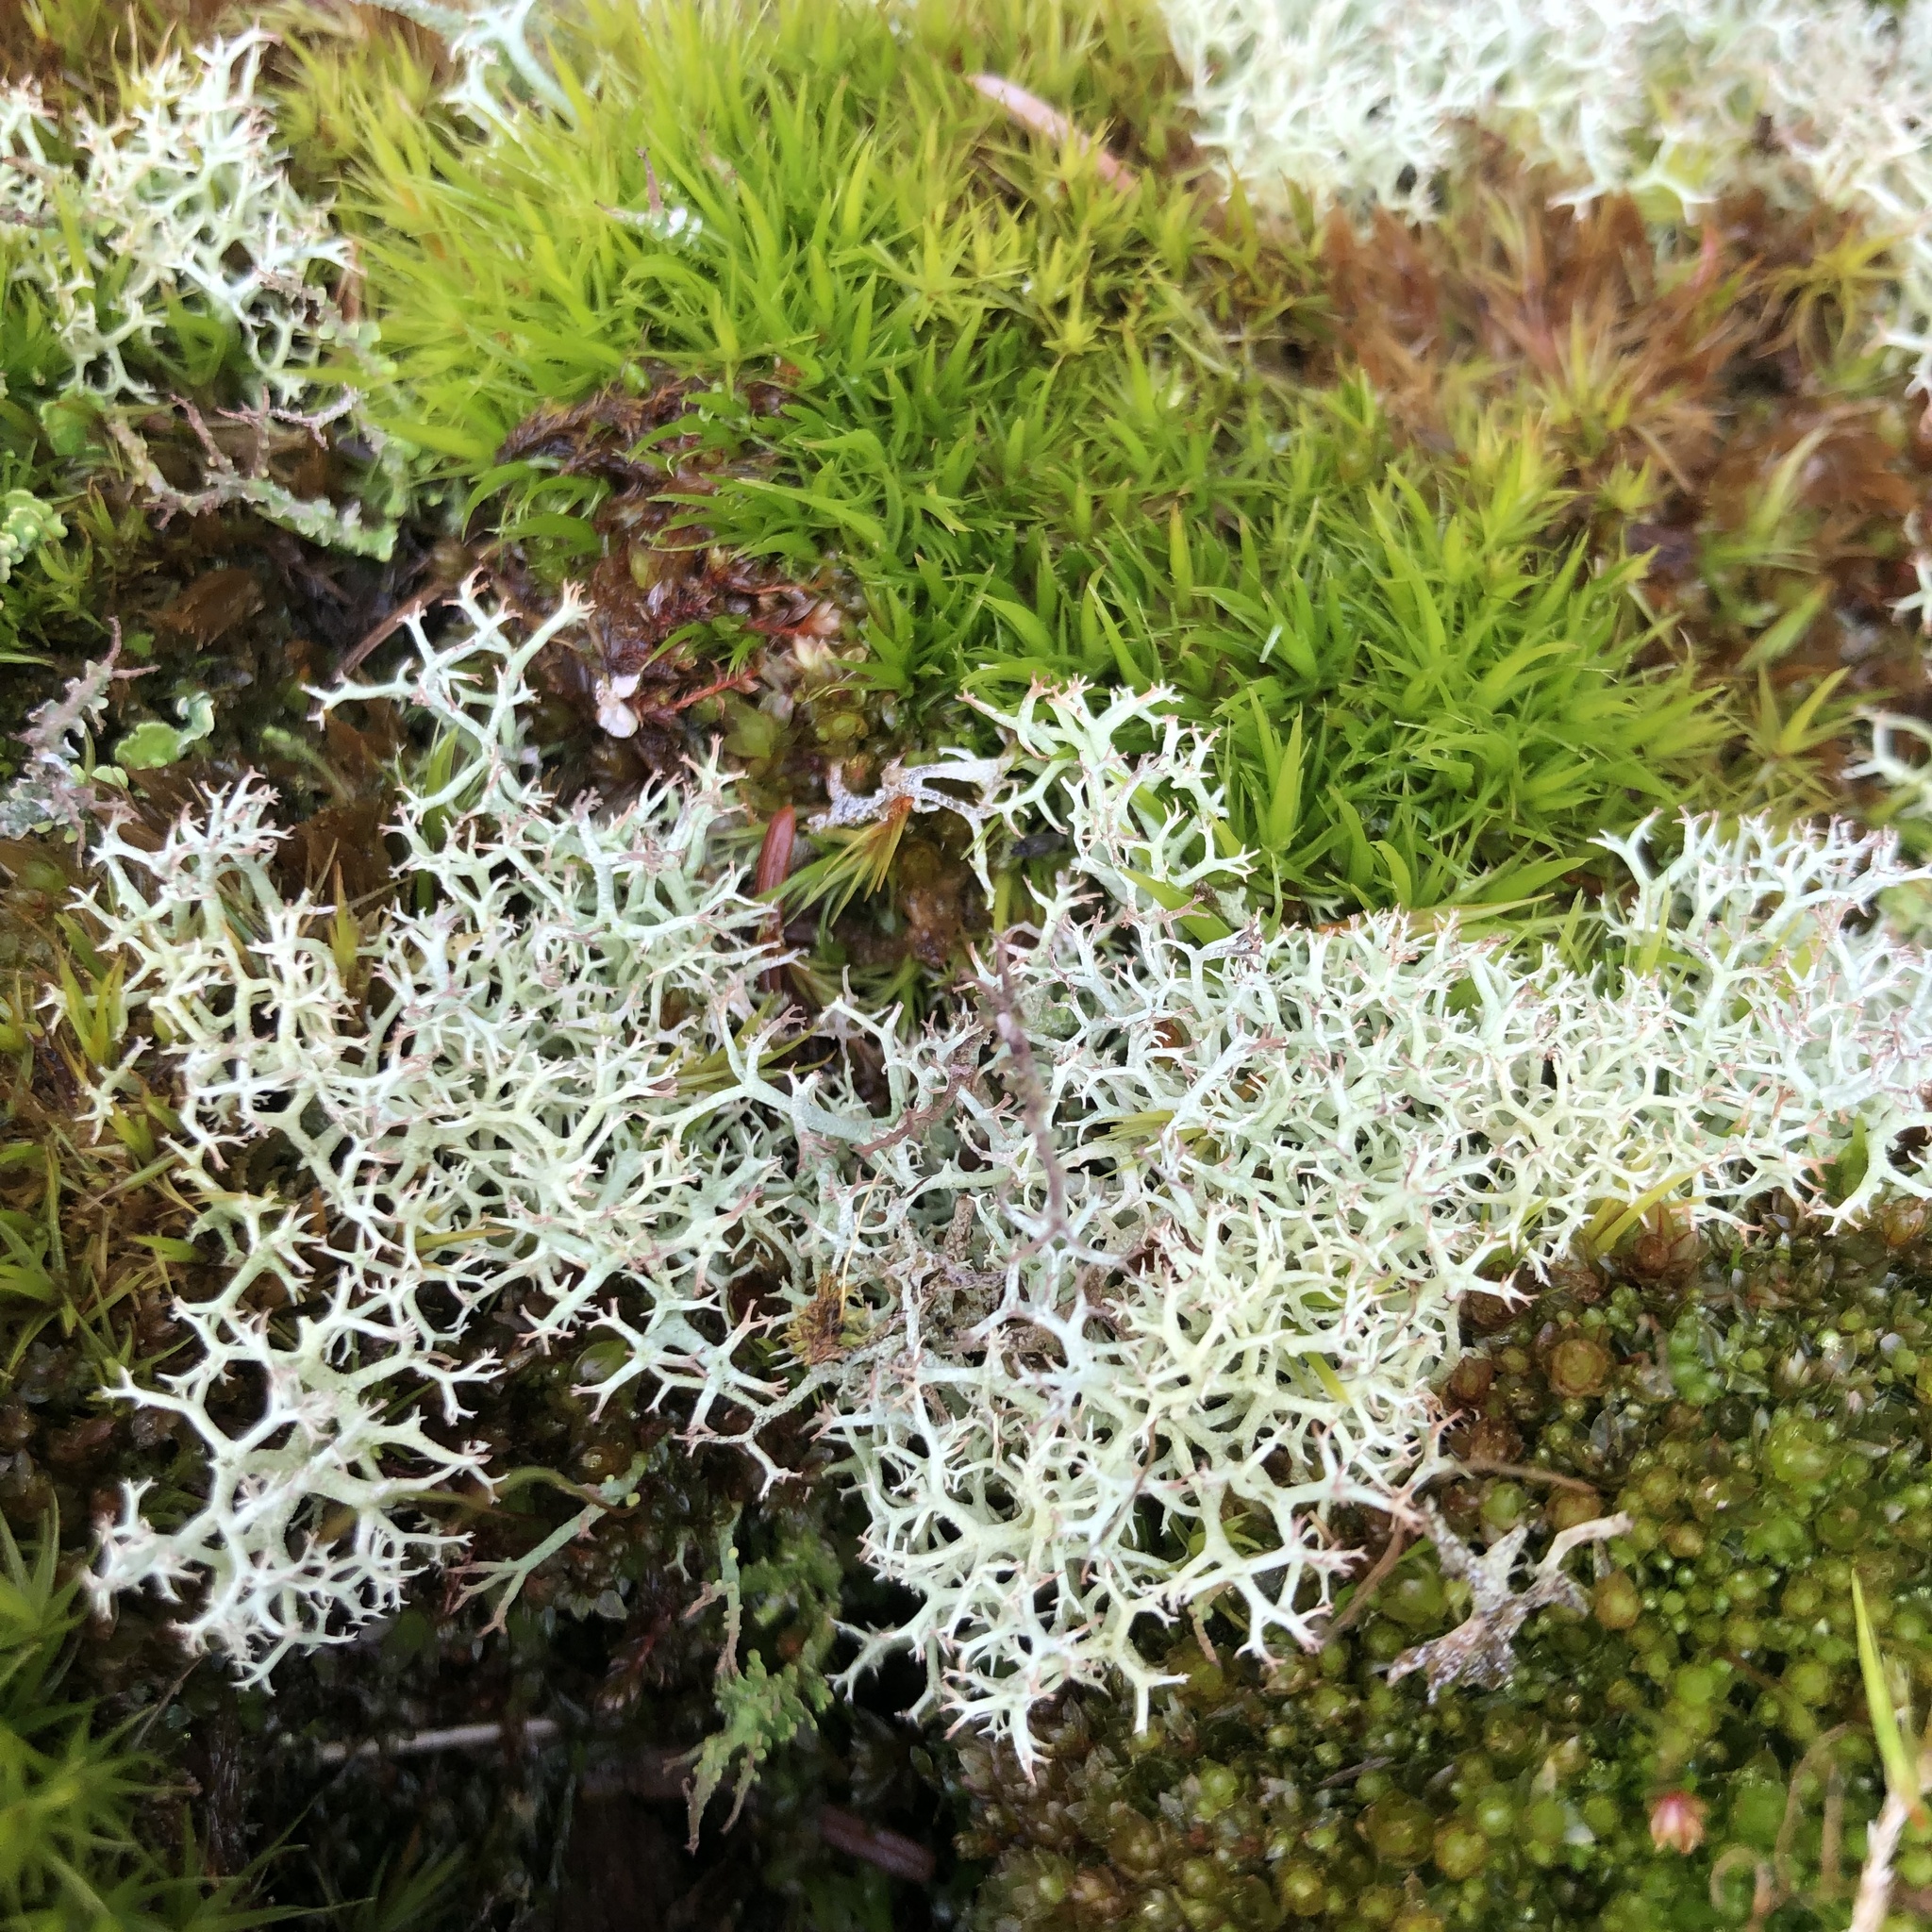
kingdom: Fungi
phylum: Ascomycota
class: Lecanoromycetes
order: Lecanorales
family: Cladoniaceae
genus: Cladonia
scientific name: Cladonia portentosa
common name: Reindeer lichen
